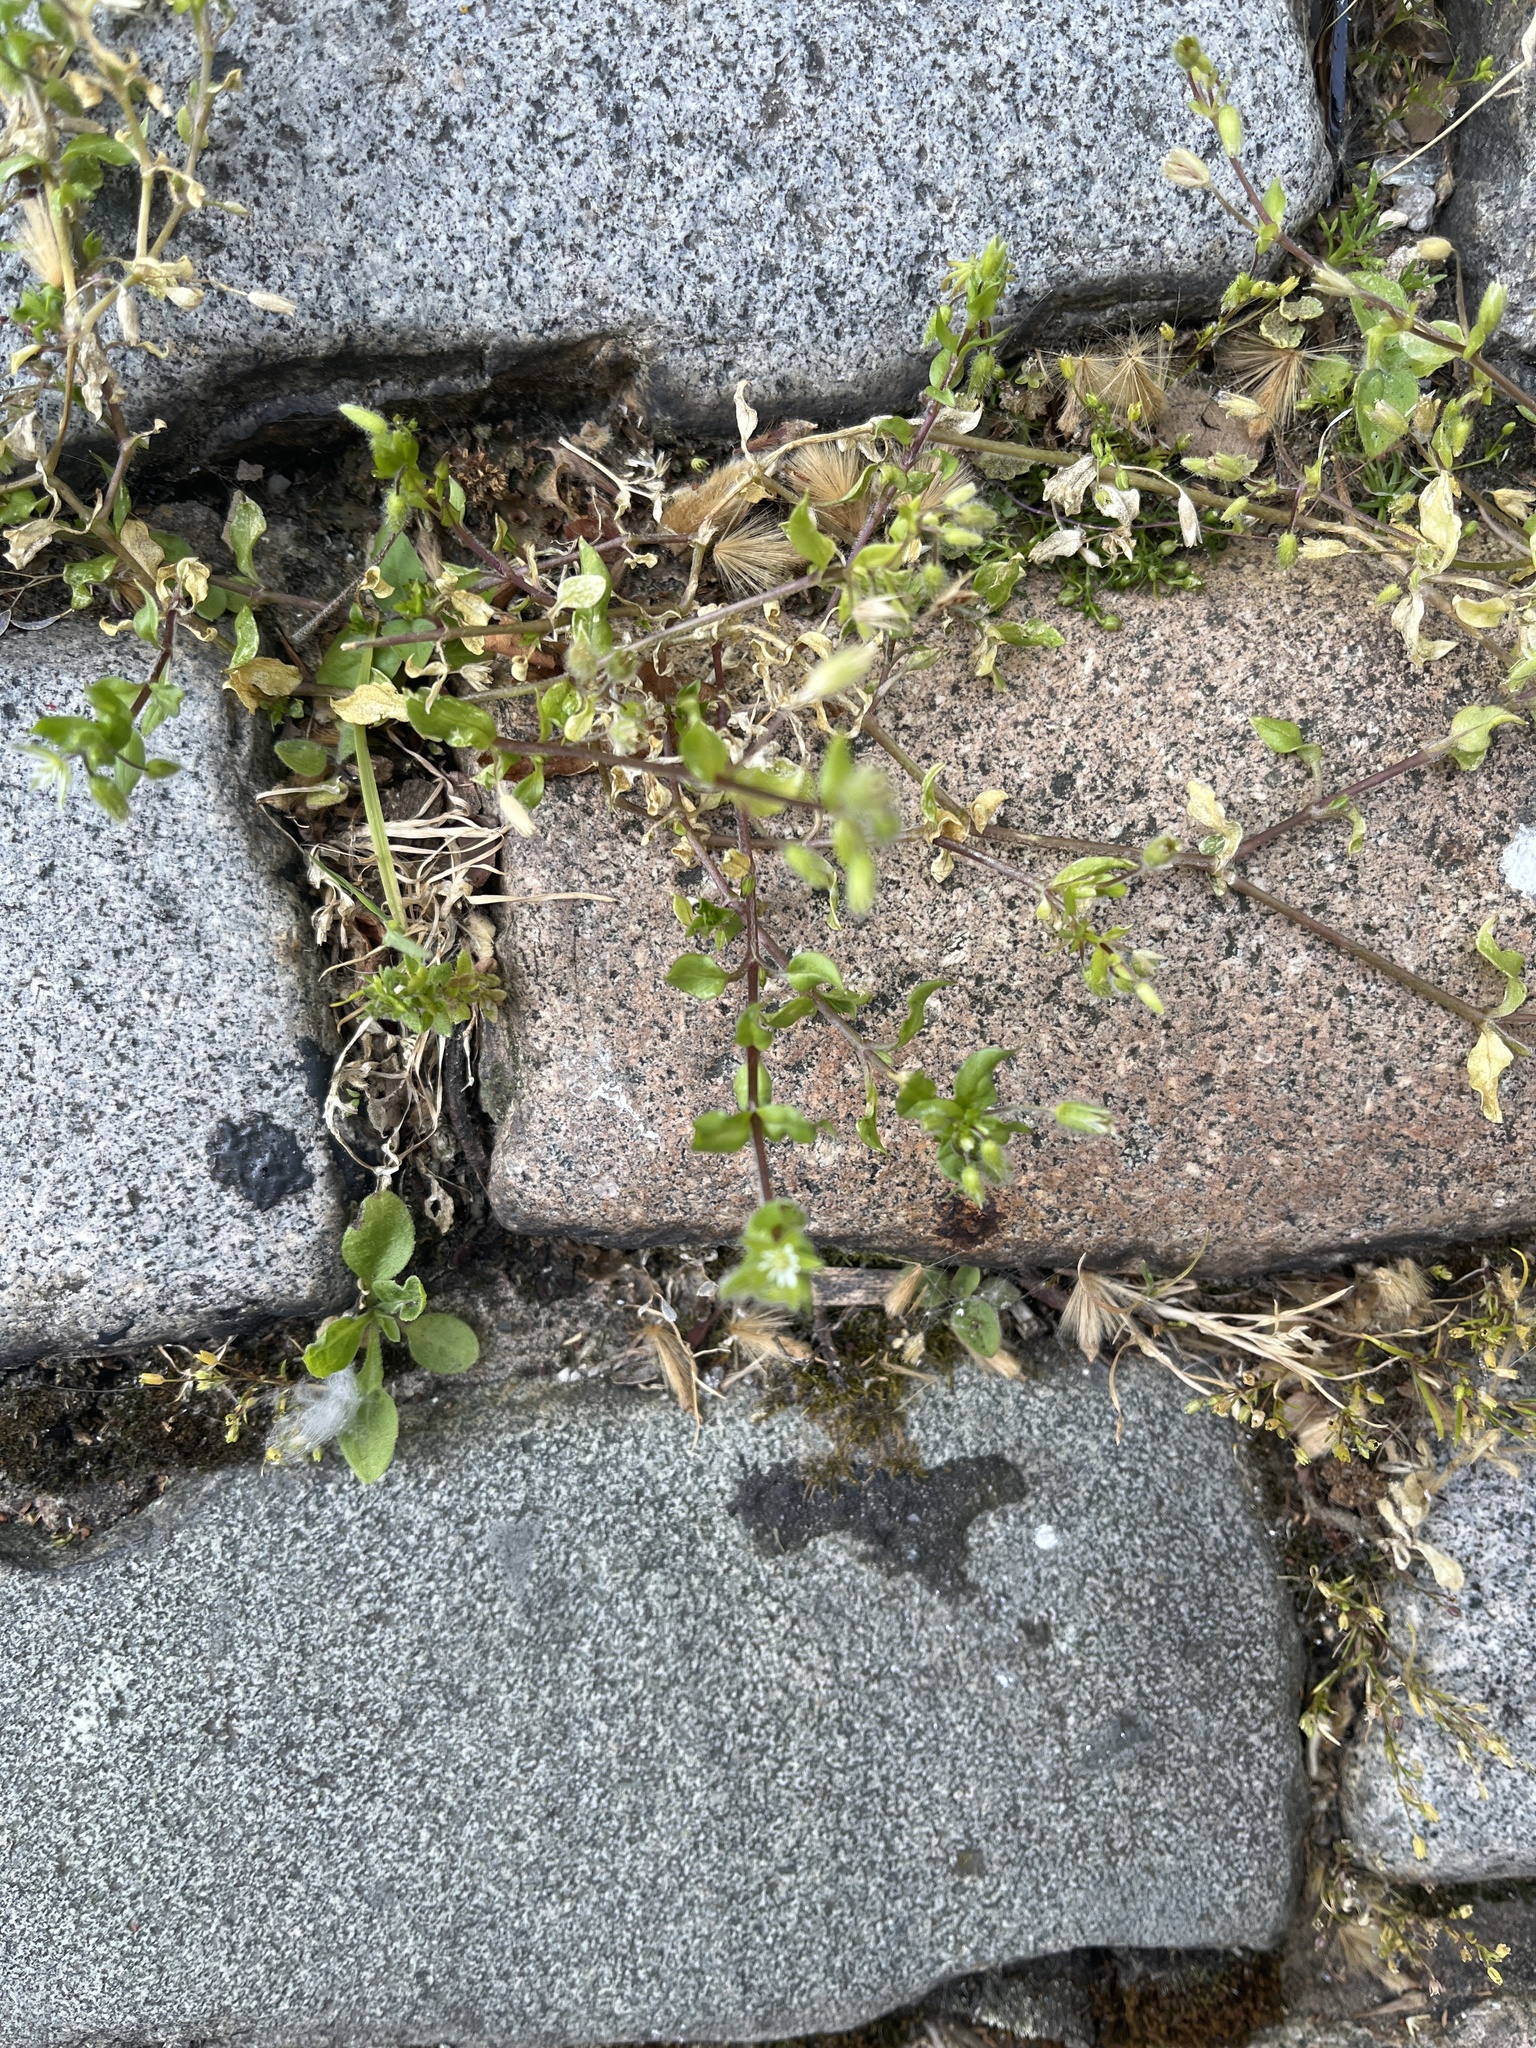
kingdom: Plantae
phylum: Tracheophyta
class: Magnoliopsida
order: Caryophyllales
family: Caryophyllaceae
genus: Stellaria
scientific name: Stellaria media
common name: Common chickweed
